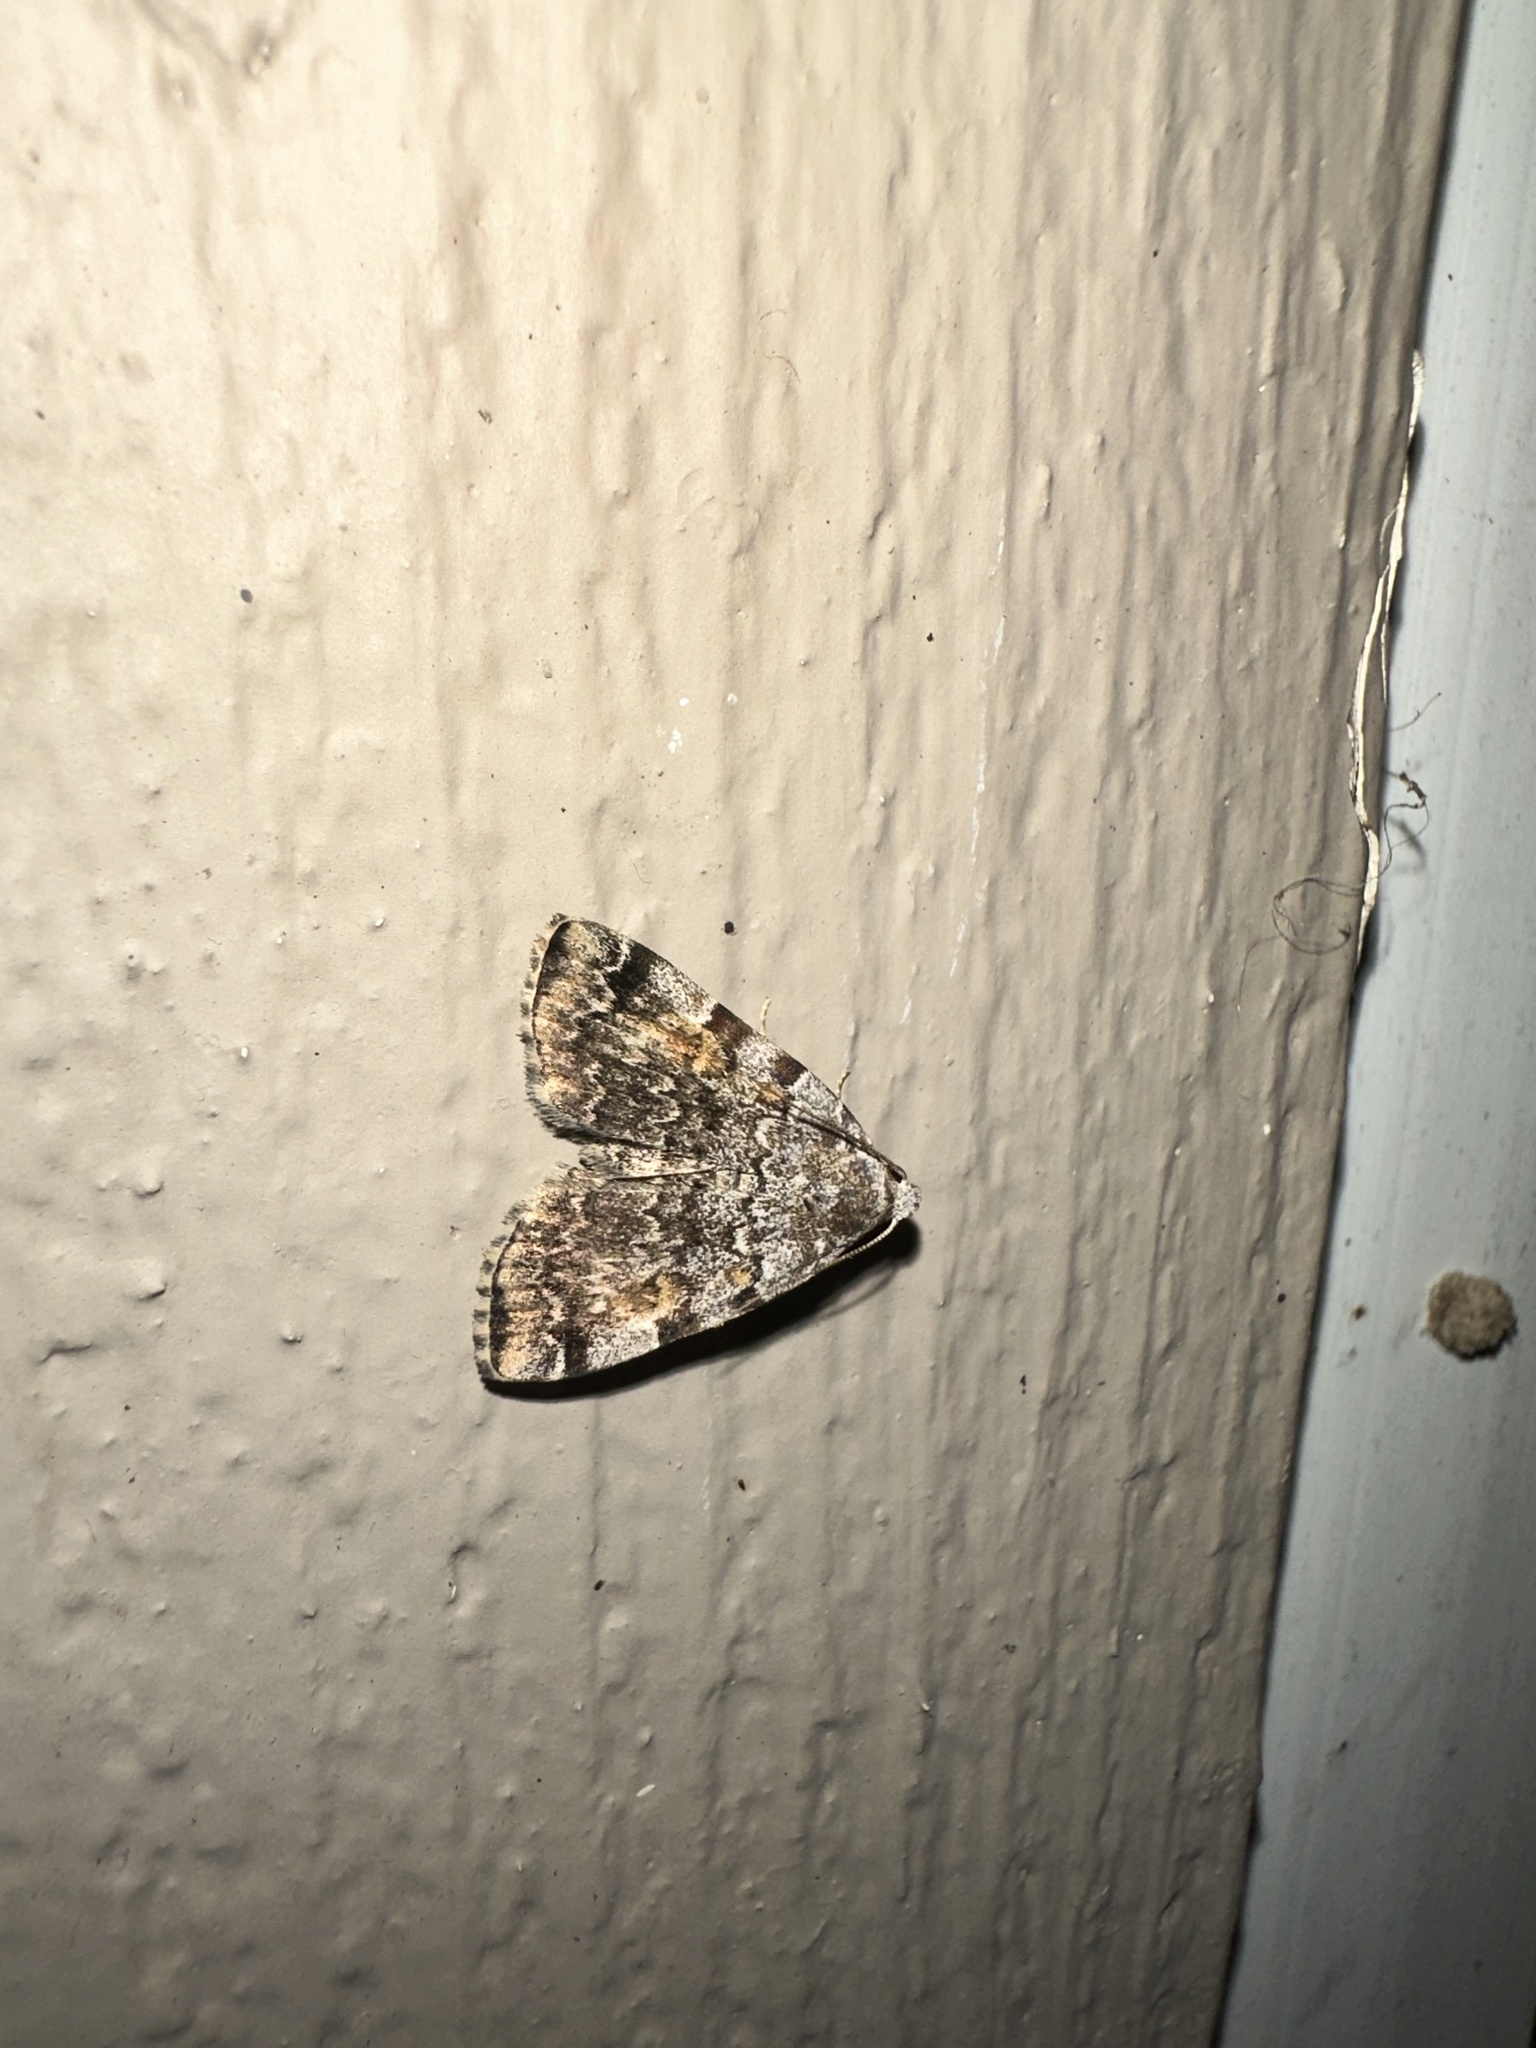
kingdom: Animalia
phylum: Arthropoda
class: Insecta
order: Lepidoptera
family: Erebidae
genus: Idia
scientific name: Idia americalis
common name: American idia moth
